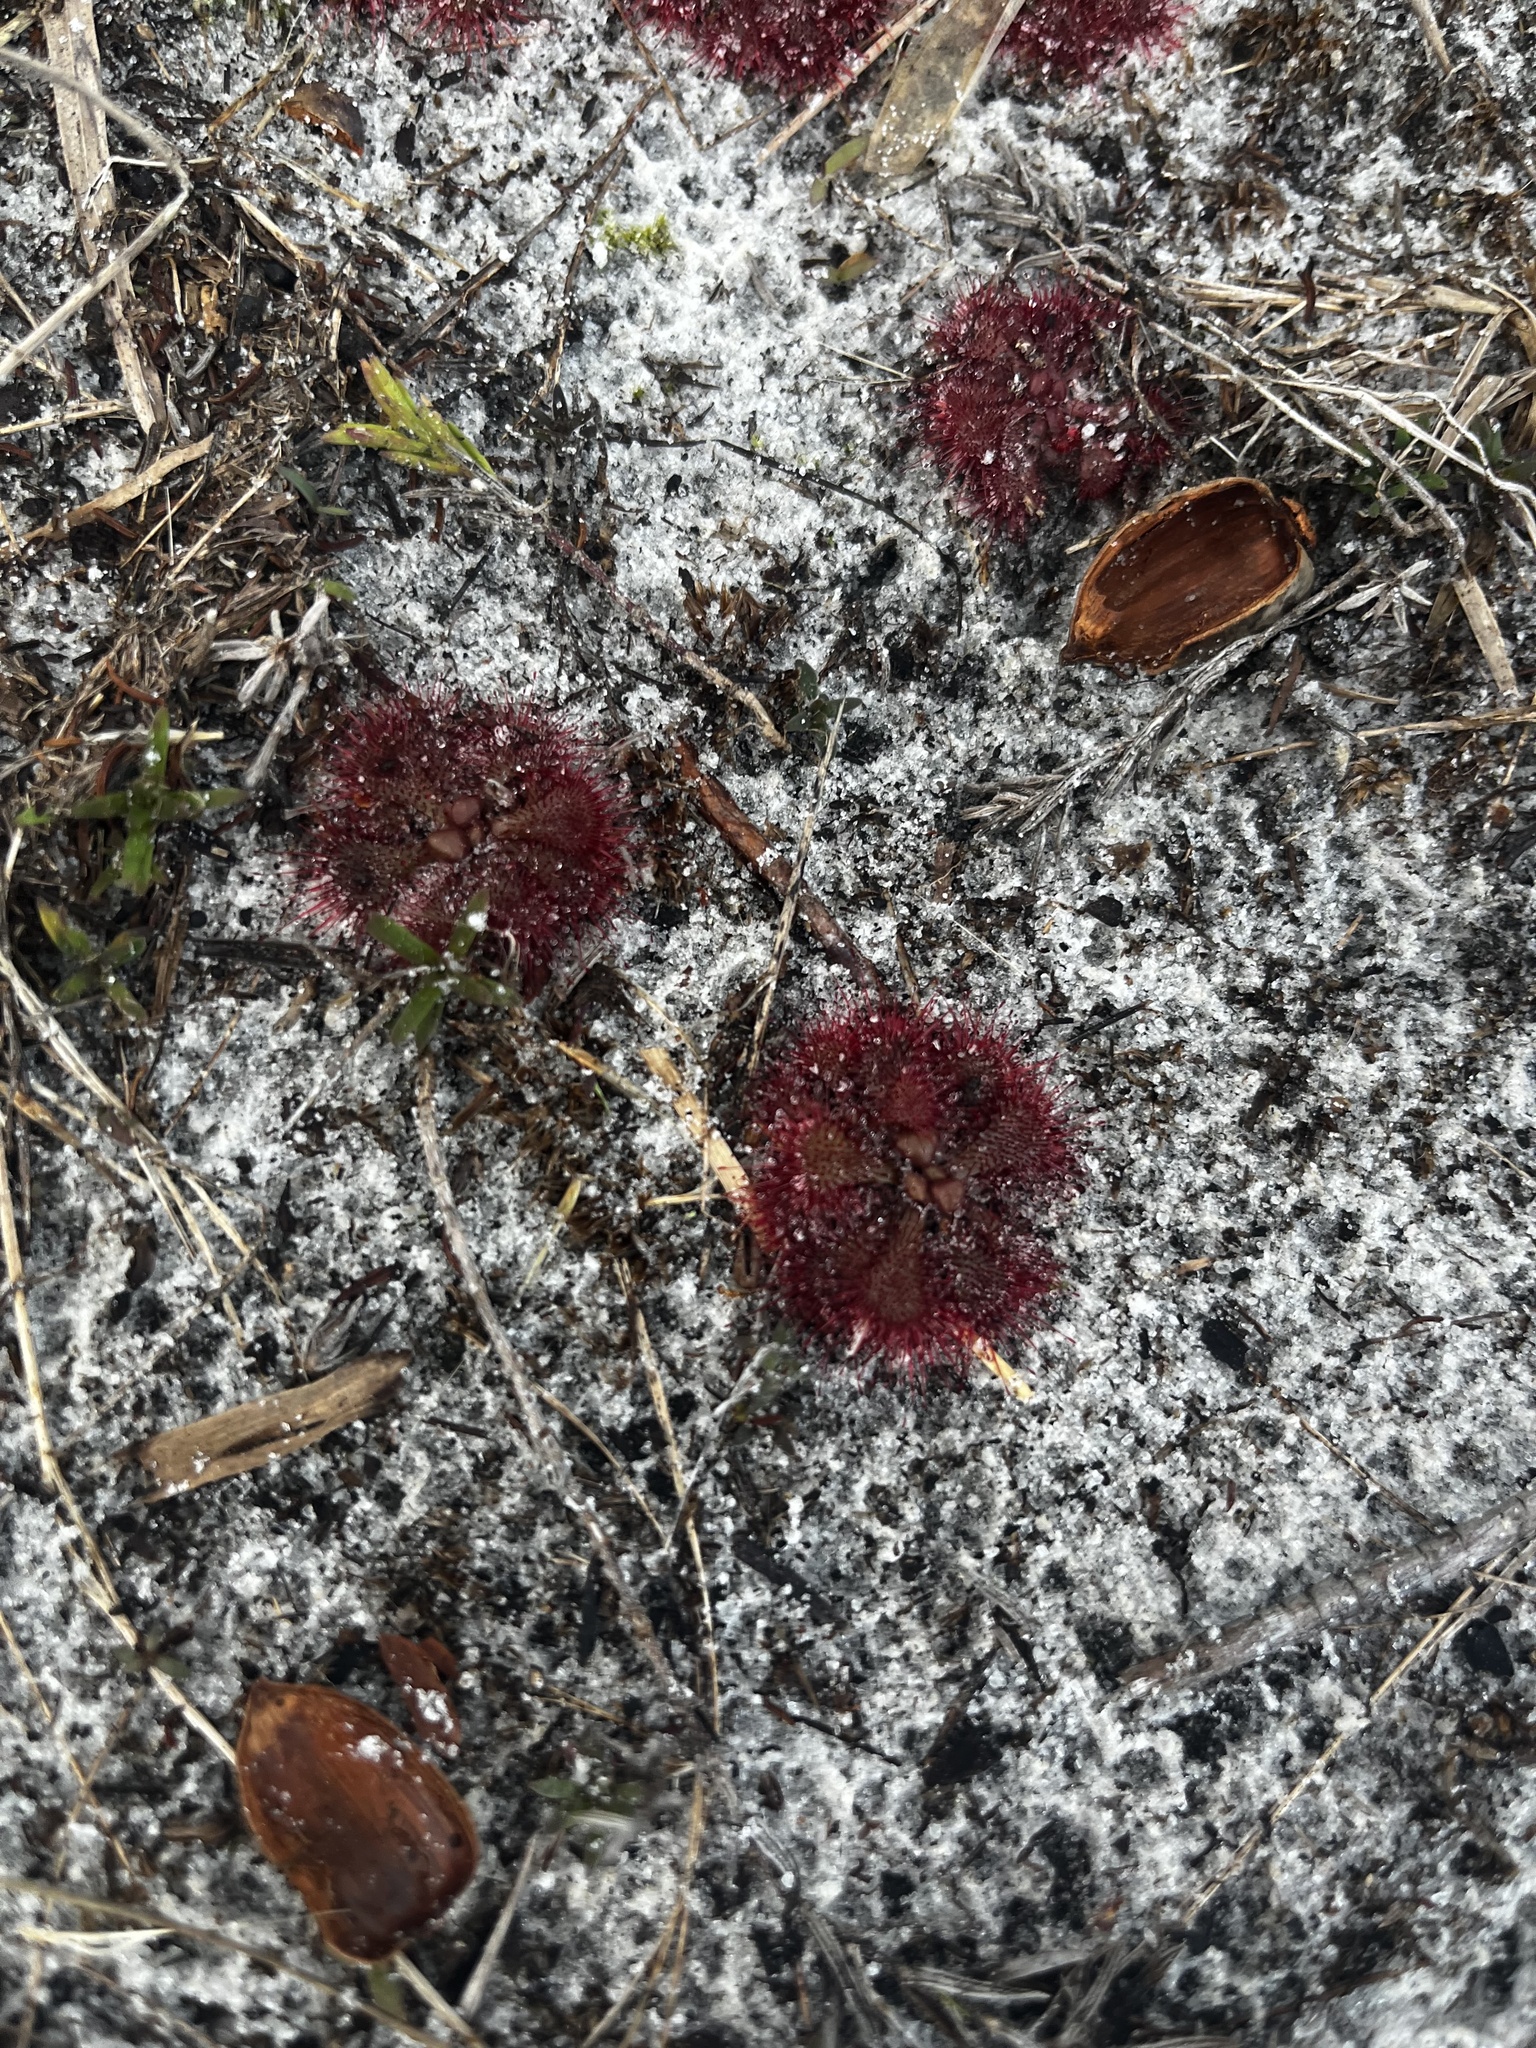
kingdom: Plantae
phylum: Tracheophyta
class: Magnoliopsida
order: Caryophyllales
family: Droseraceae
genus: Drosera
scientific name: Drosera brevifolia
